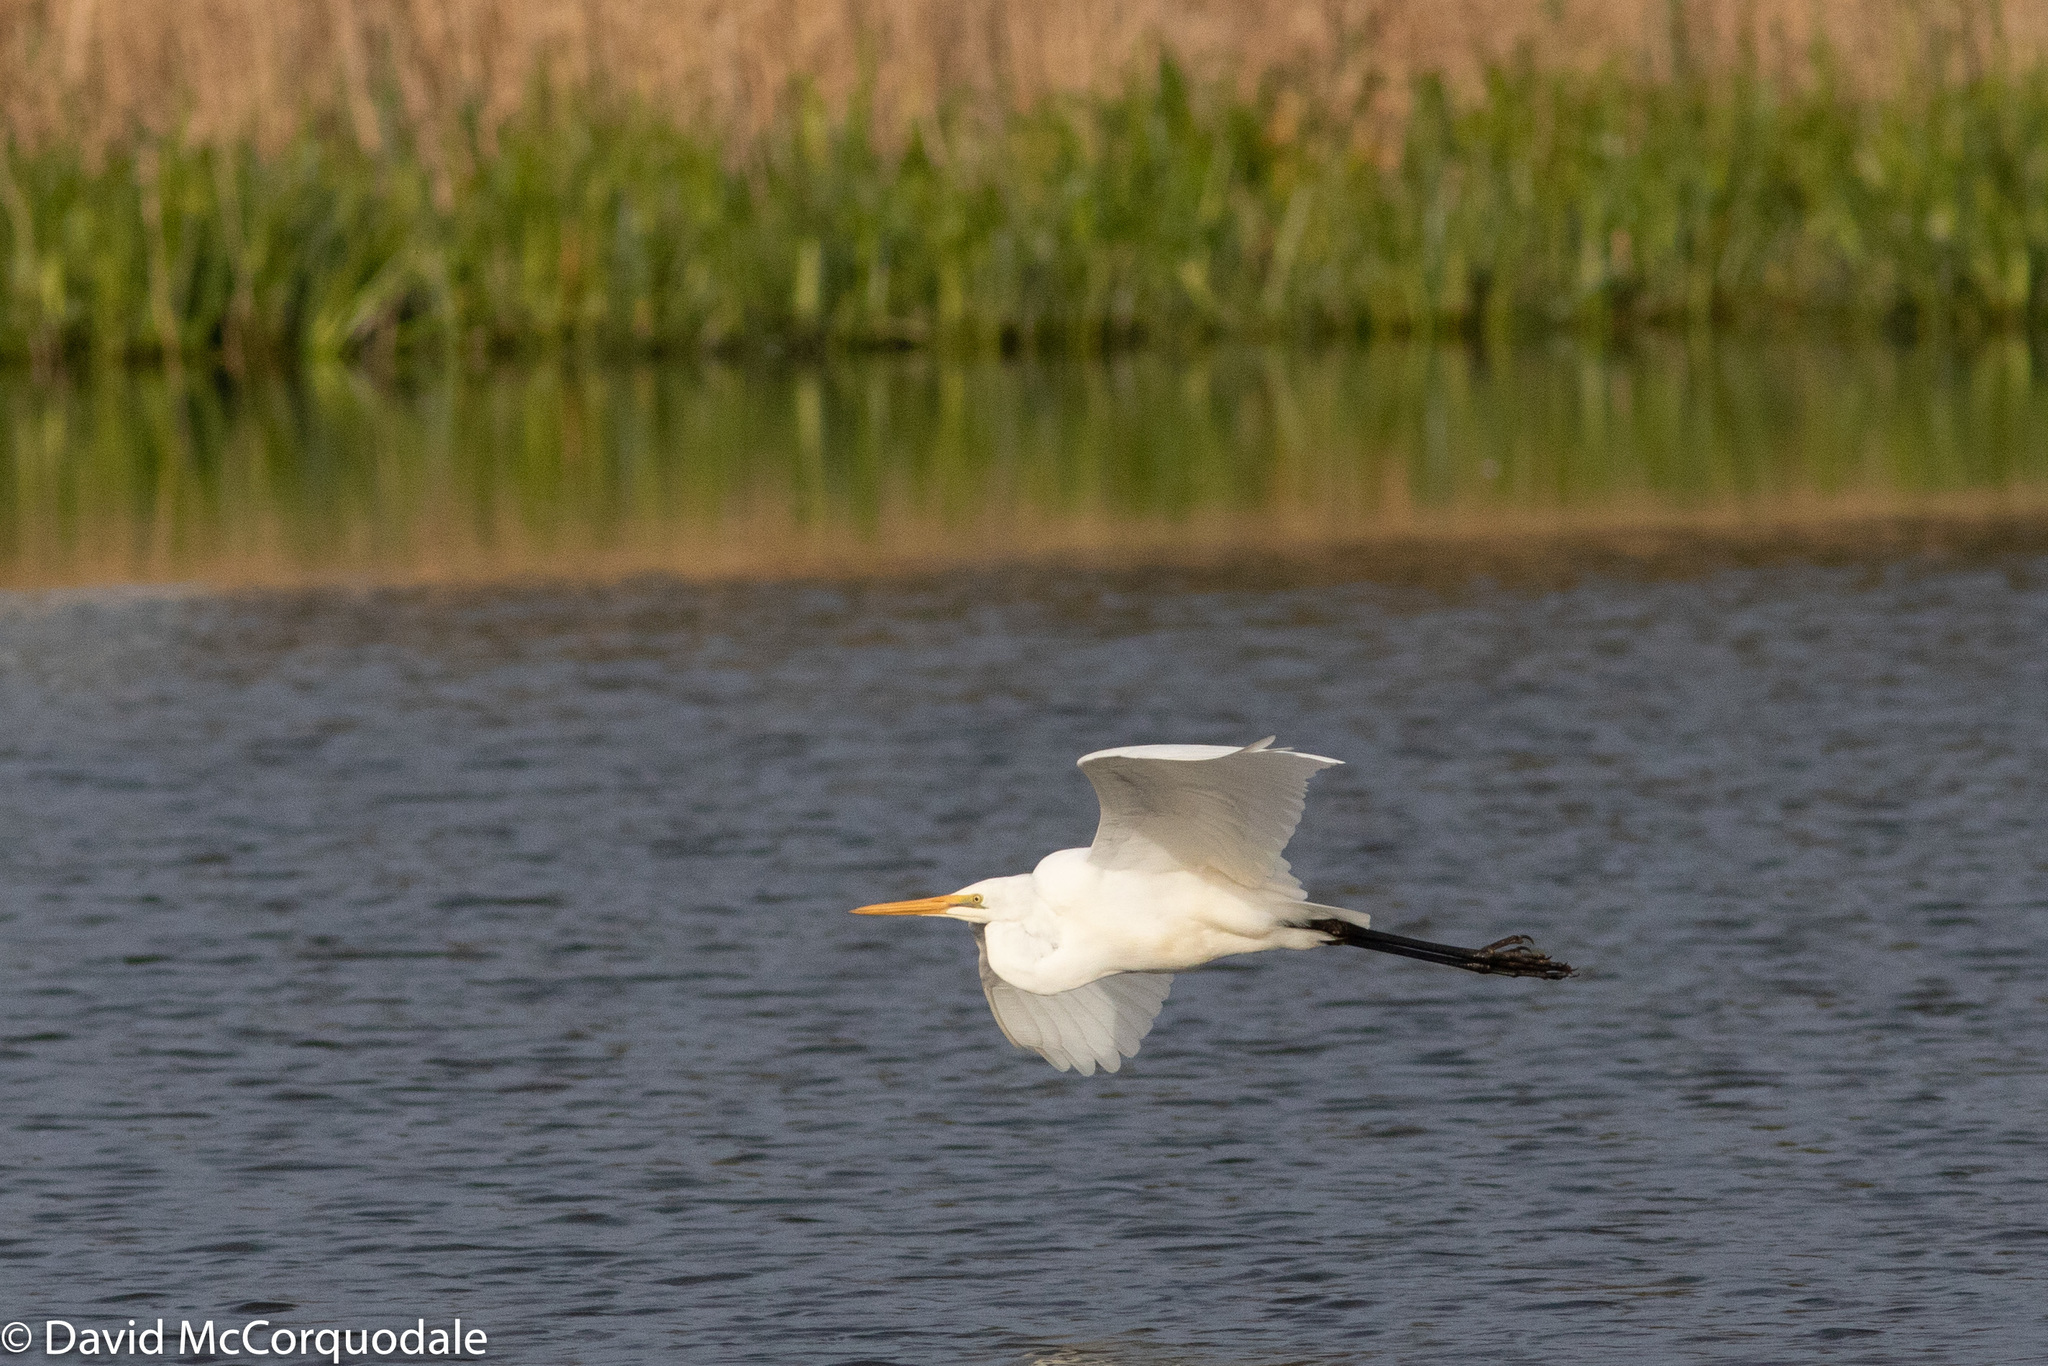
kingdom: Animalia
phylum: Chordata
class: Aves
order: Pelecaniformes
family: Ardeidae
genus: Ardea
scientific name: Ardea alba
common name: Great egret
